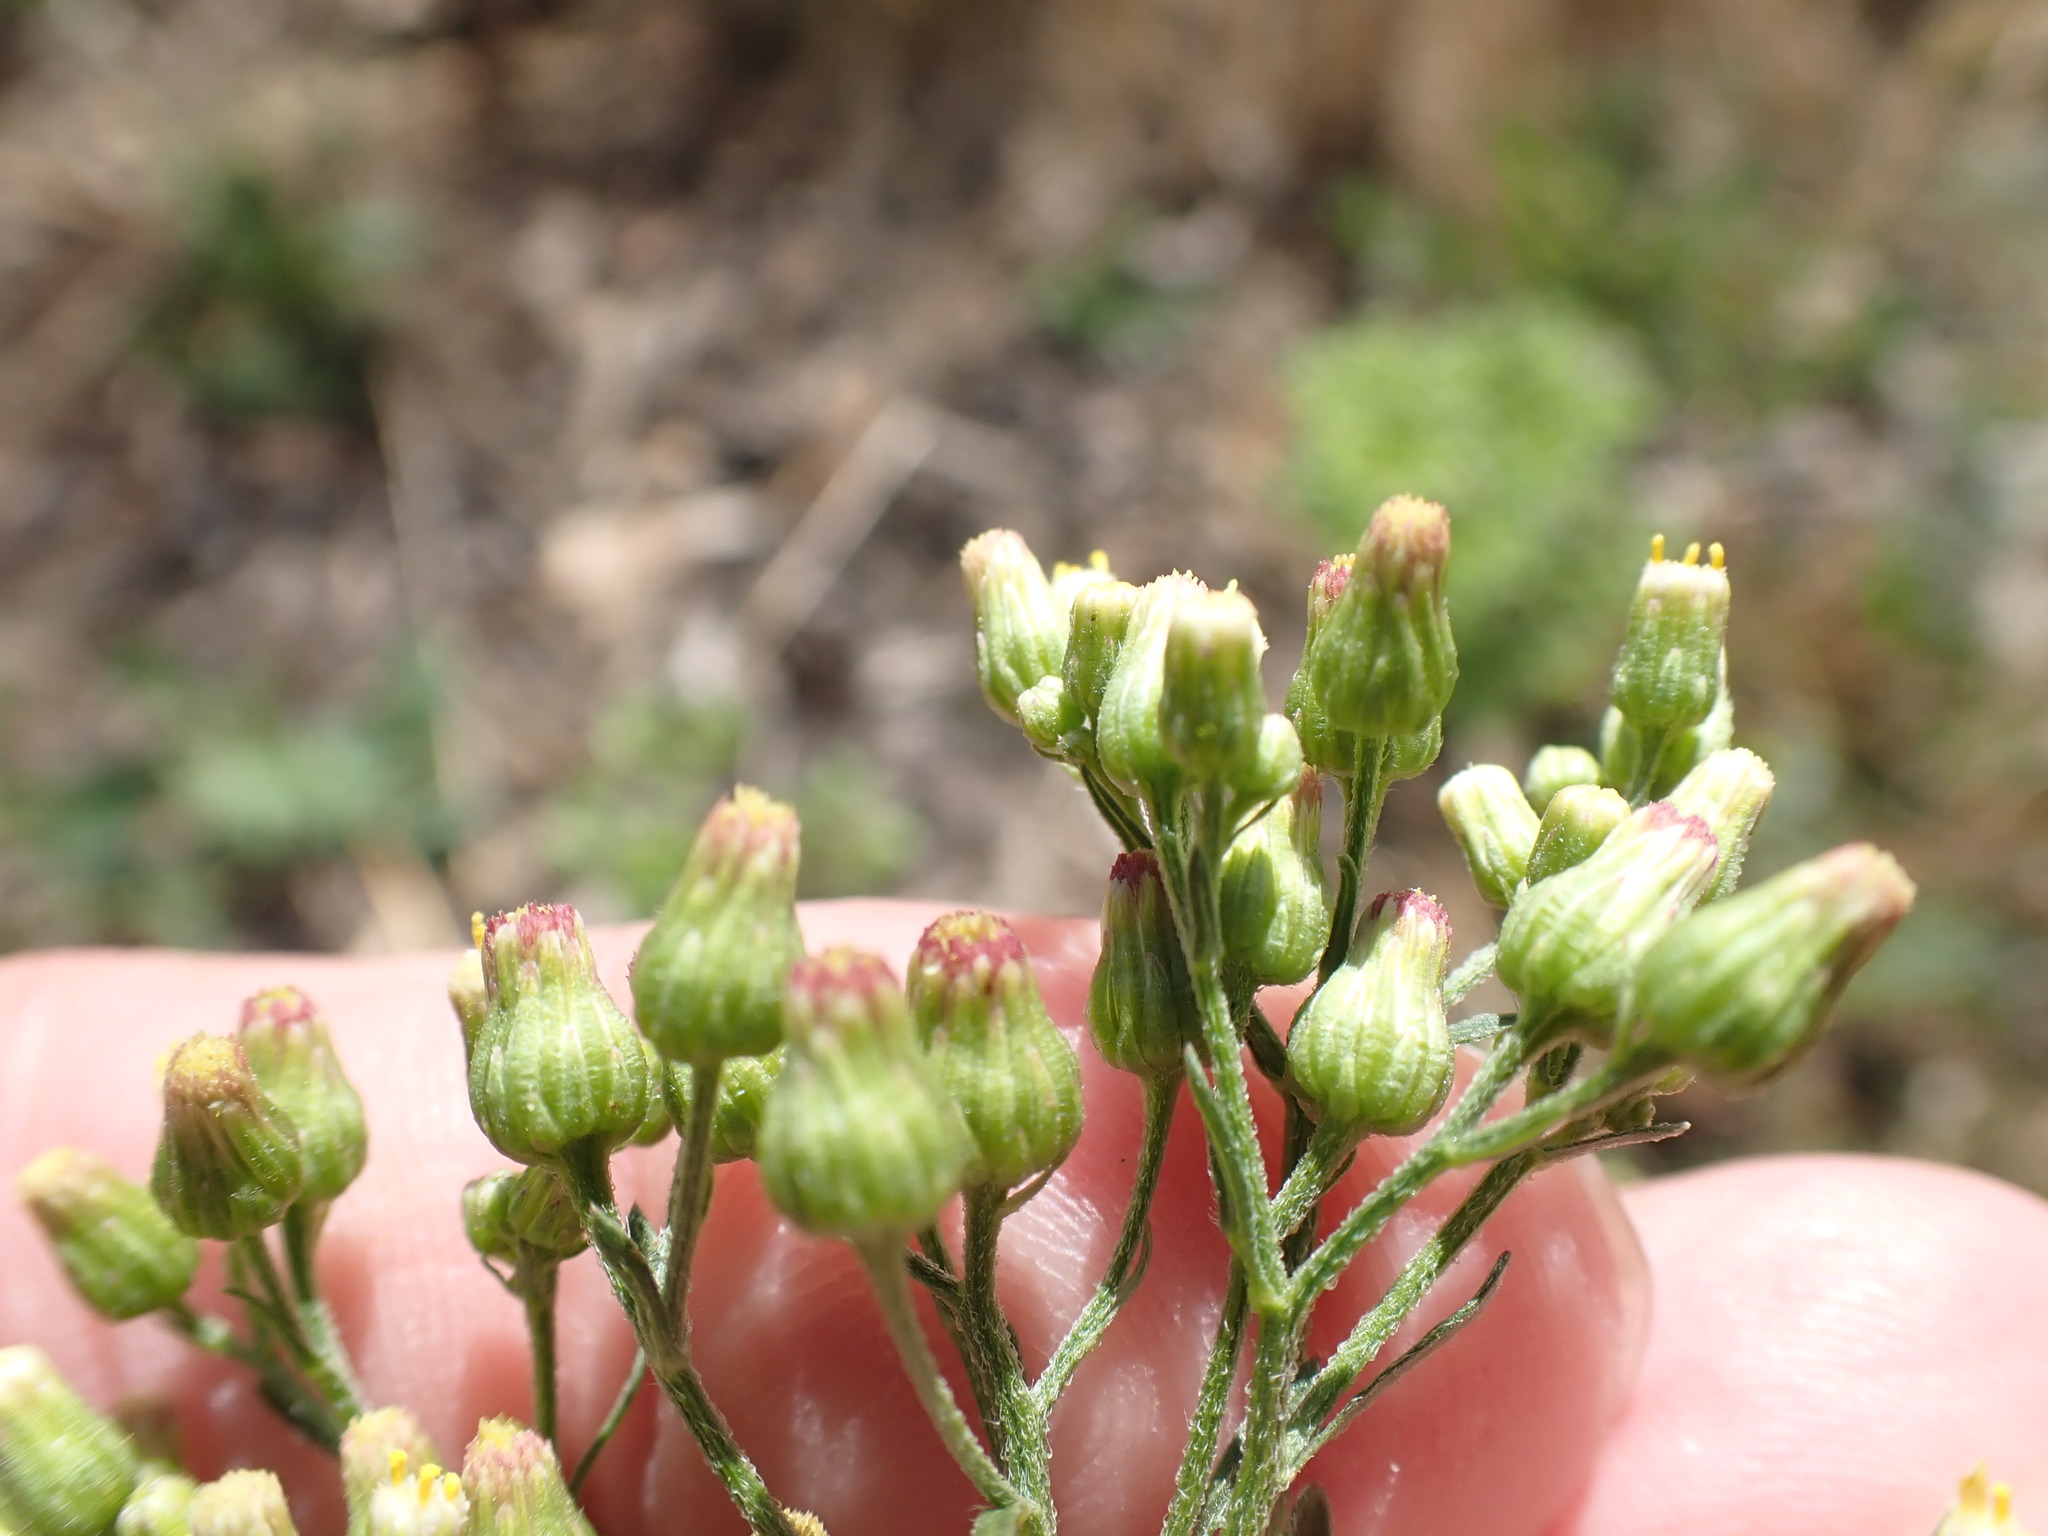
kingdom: Plantae
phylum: Tracheophyta
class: Magnoliopsida
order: Asterales
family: Asteraceae
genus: Erigeron
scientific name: Erigeron floribundus
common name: Bilbao fleabane
